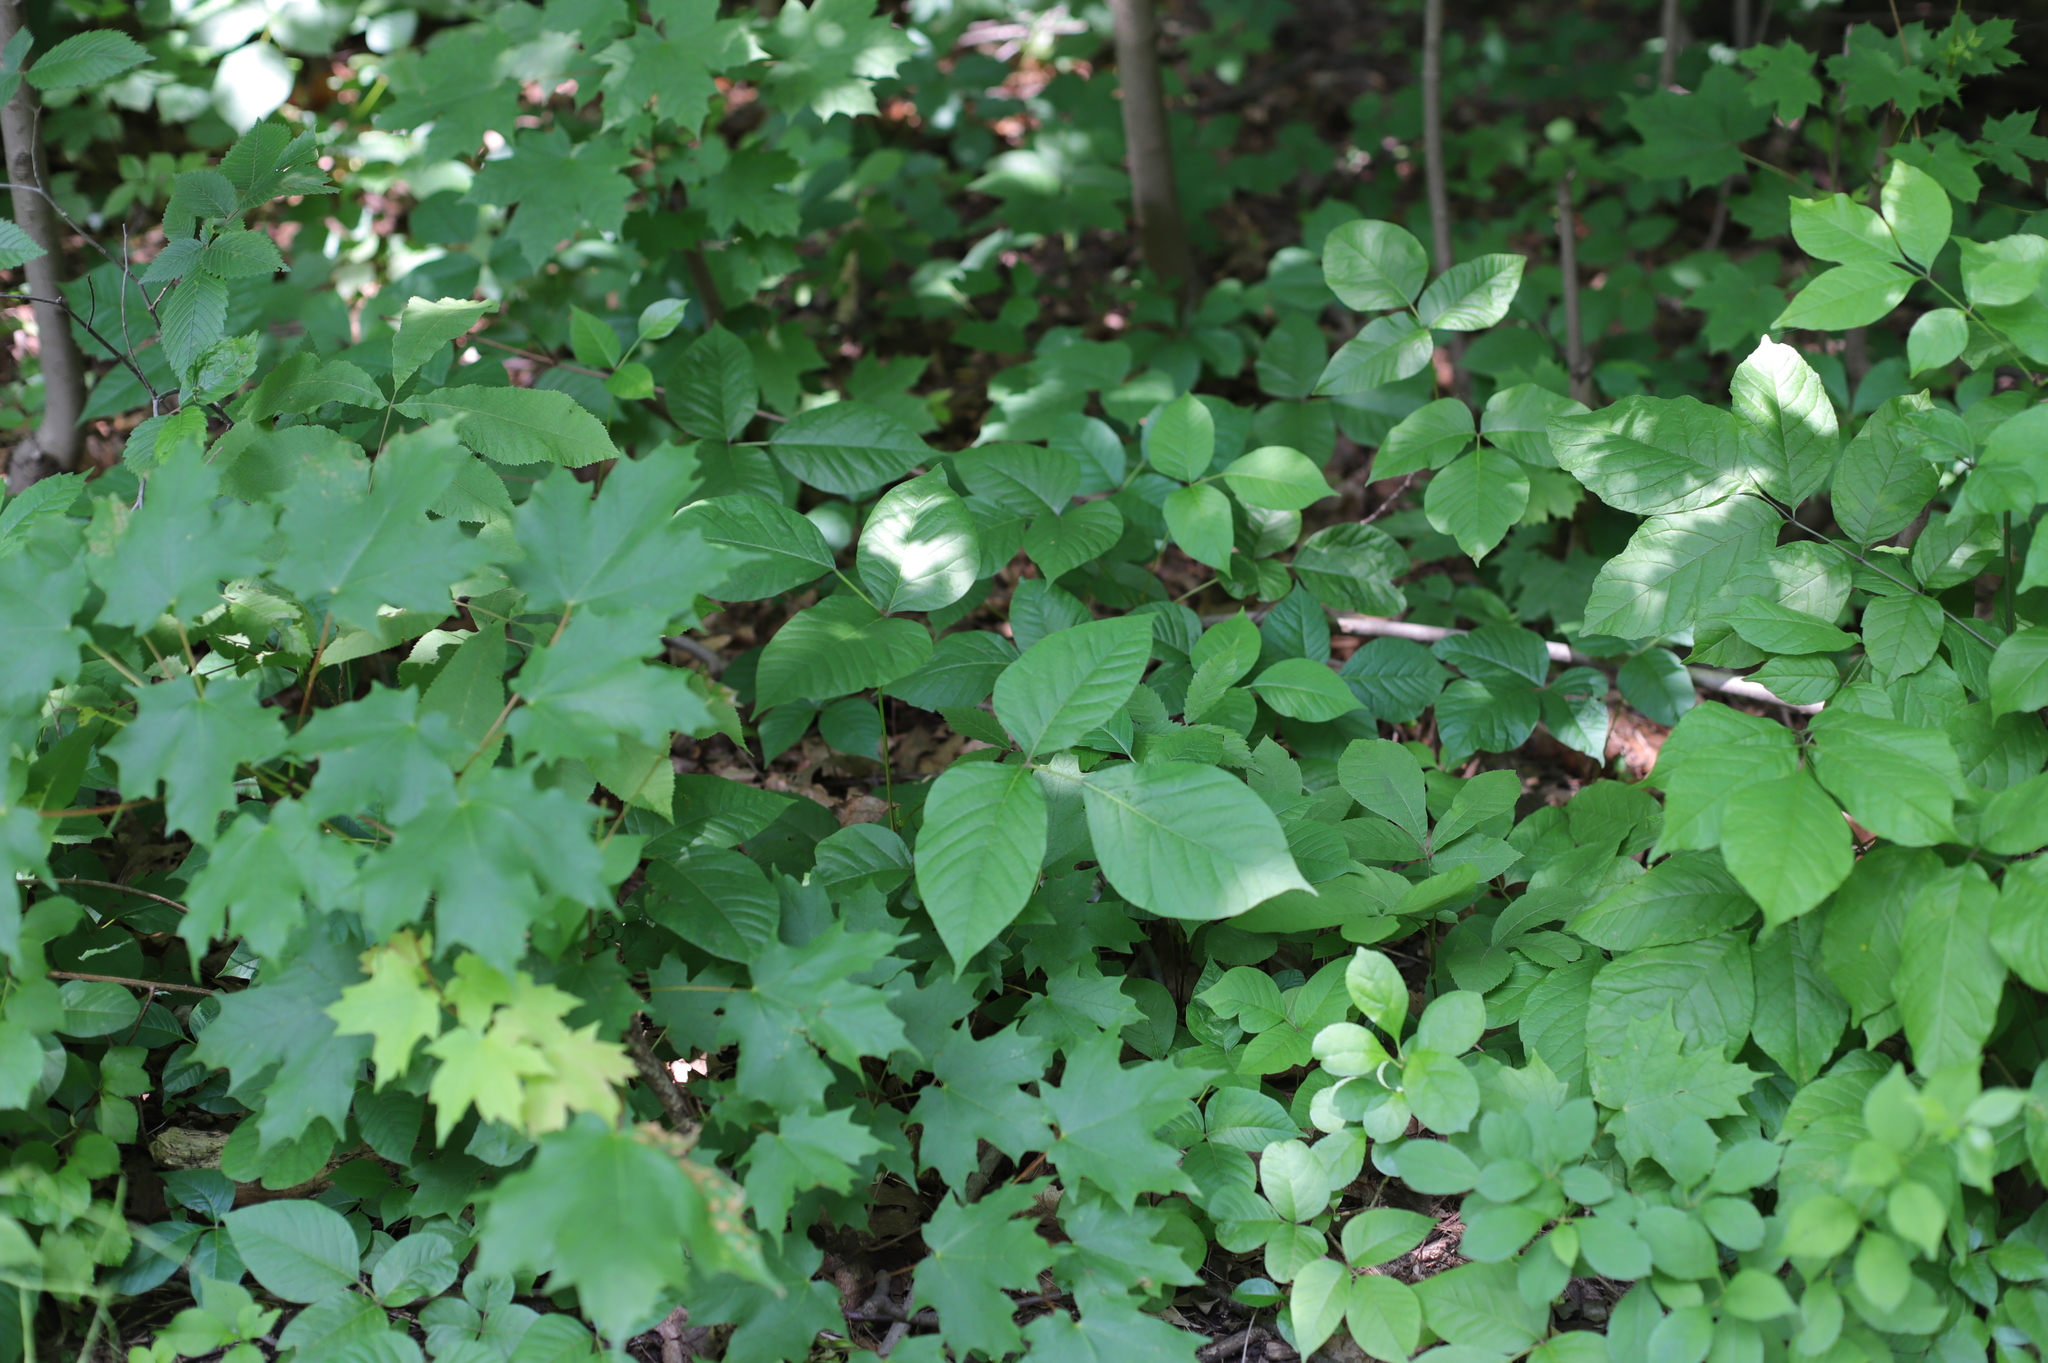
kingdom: Plantae
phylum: Tracheophyta
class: Magnoliopsida
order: Sapindales
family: Anacardiaceae
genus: Toxicodendron
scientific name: Toxicodendron radicans
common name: Poison ivy
